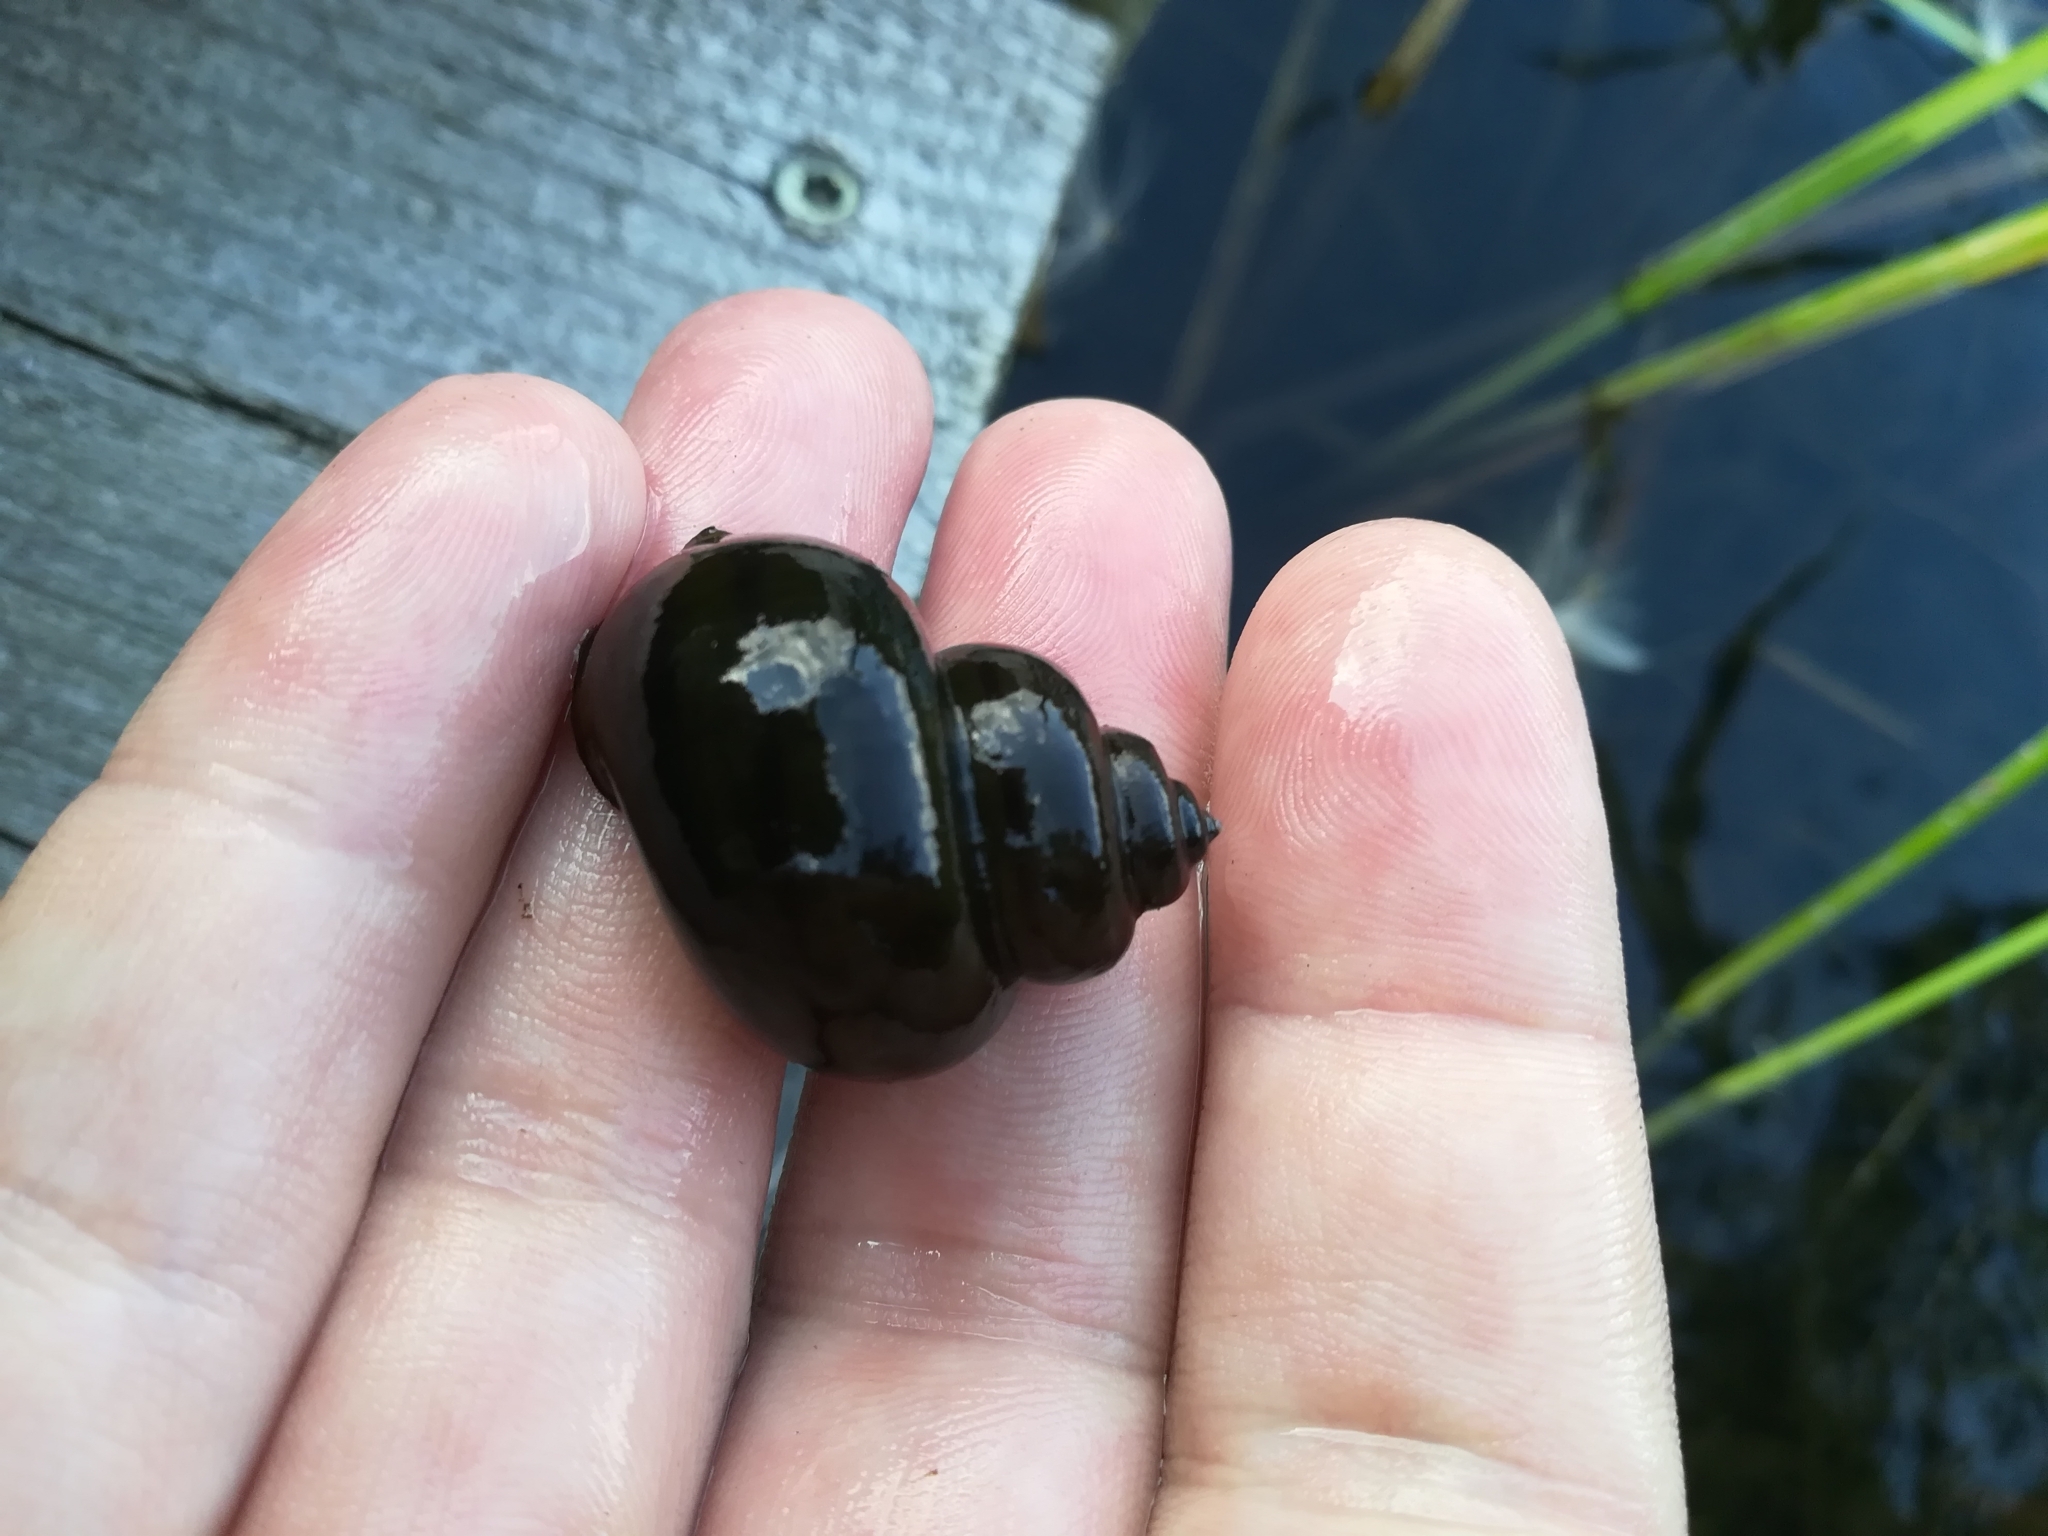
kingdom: Animalia
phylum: Mollusca
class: Gastropoda
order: Architaenioglossa
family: Viviparidae
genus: Viviparus
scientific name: Viviparus contectus
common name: Lister's river snail
